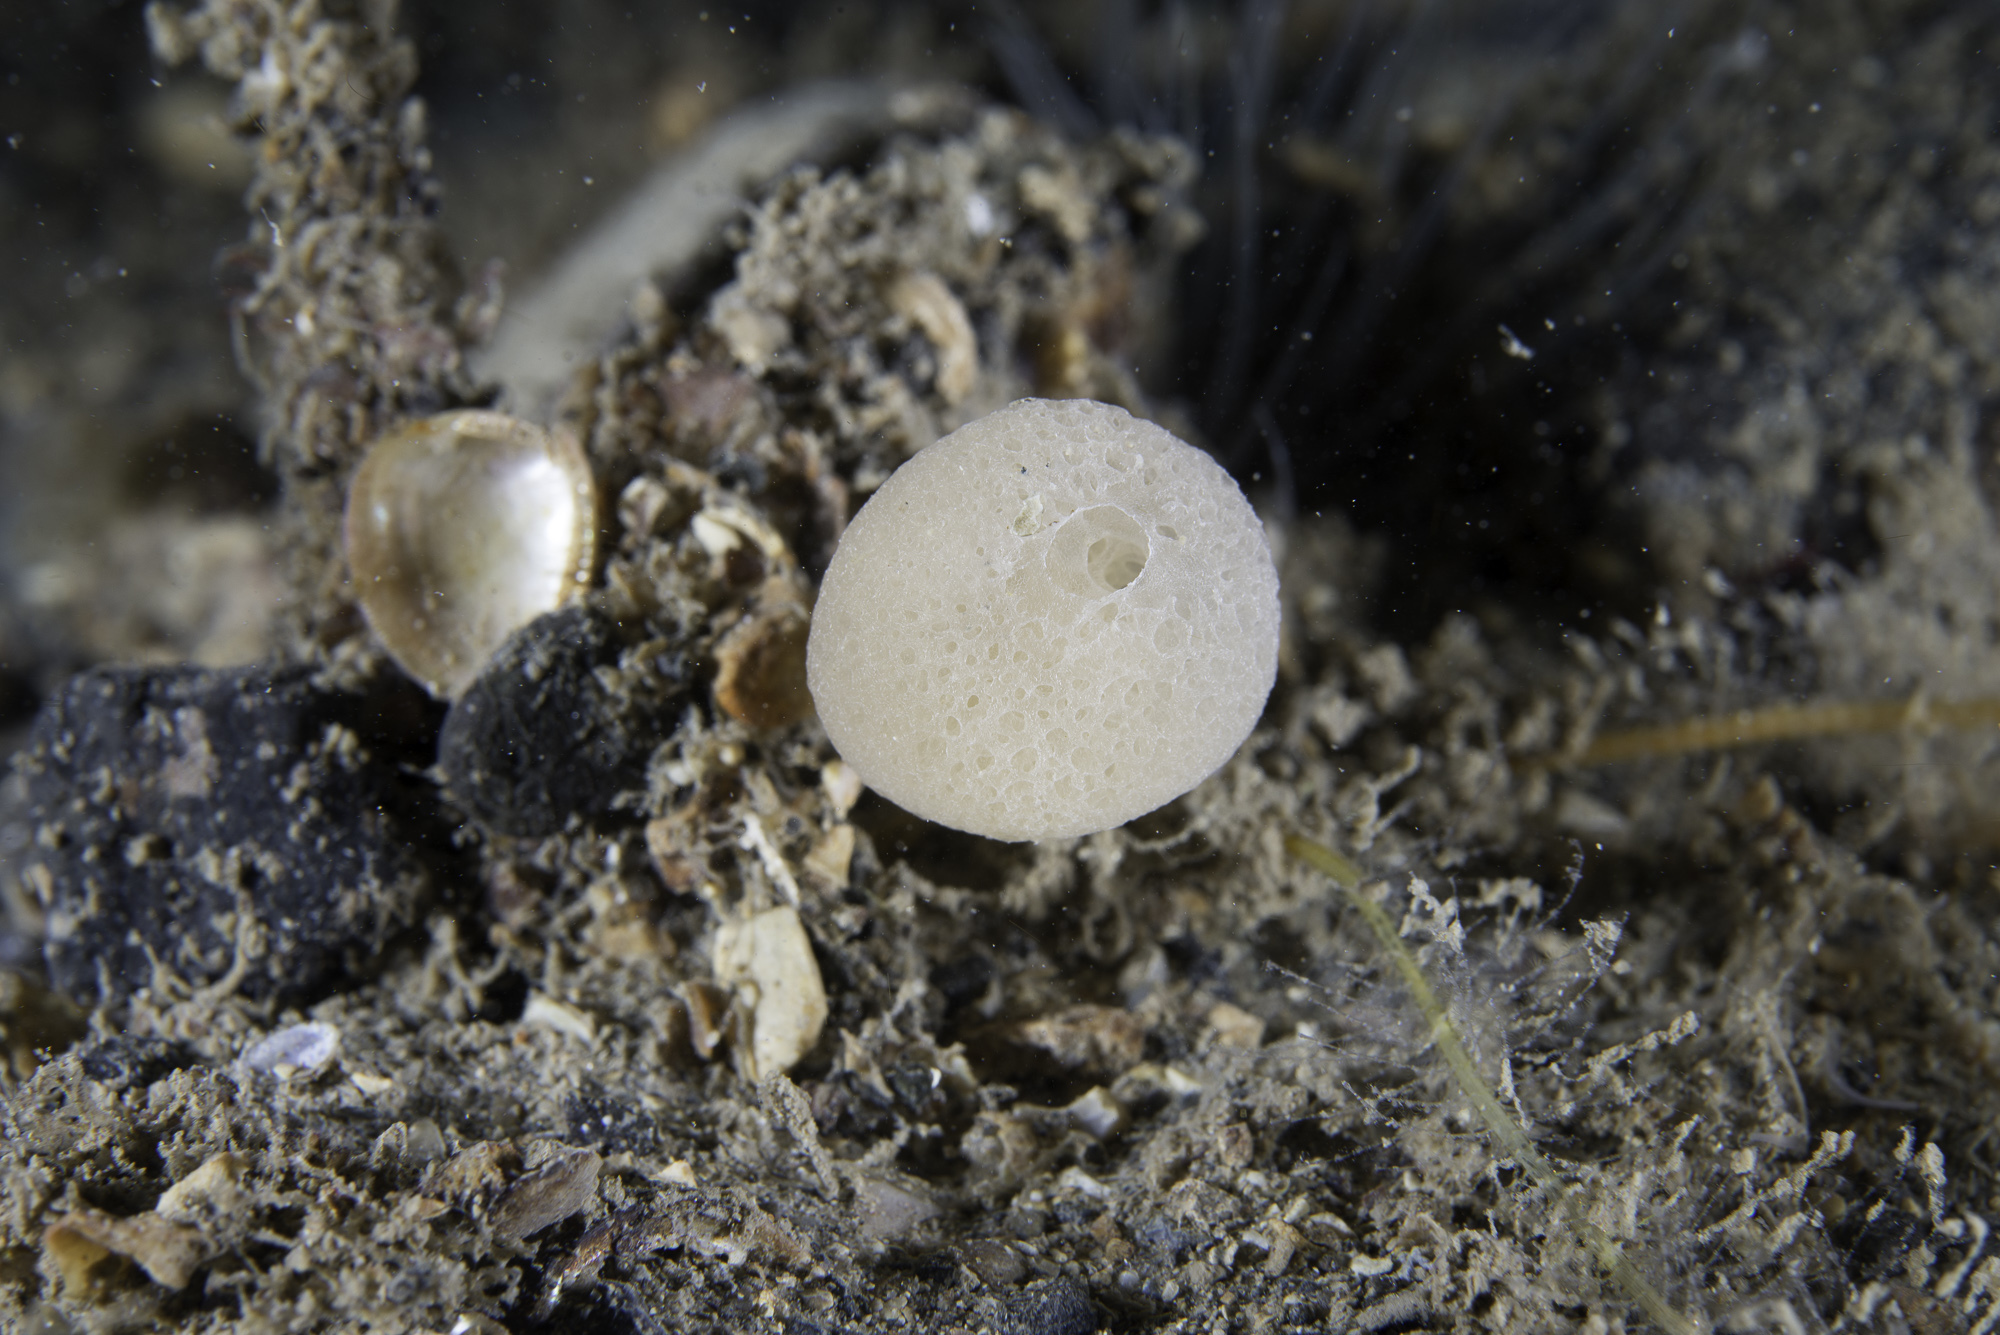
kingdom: Animalia
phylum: Porifera
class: Calcarea
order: Clathrinida
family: Clathrinidae
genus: Clathrina
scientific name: Clathrina lacunosa
